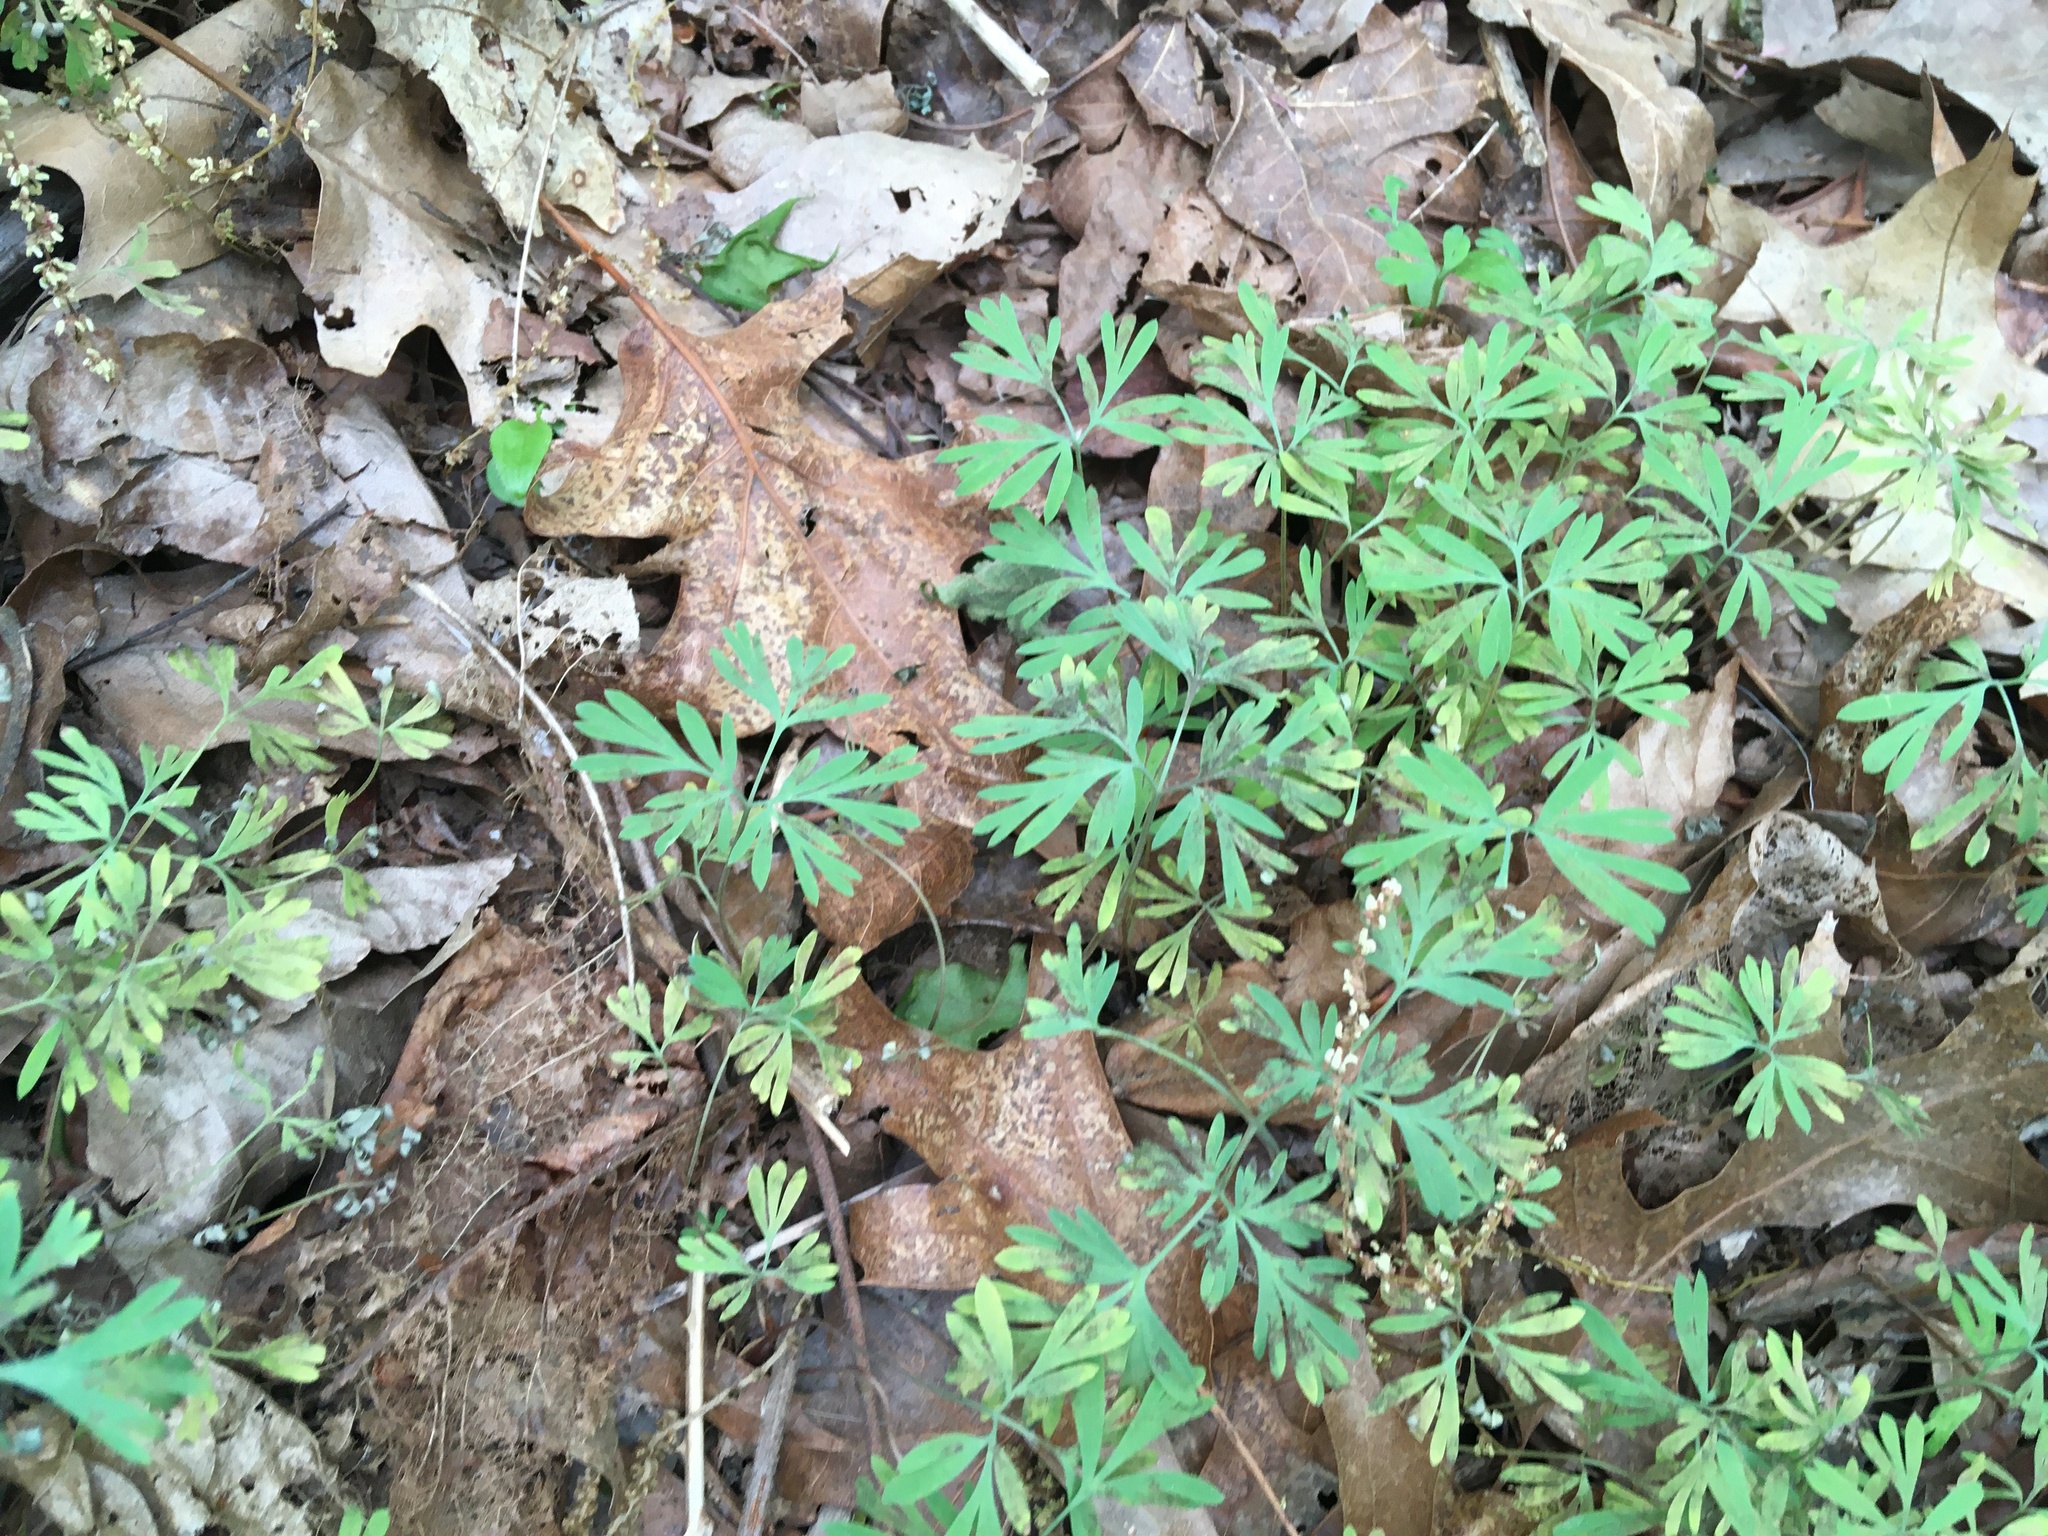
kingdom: Plantae
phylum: Tracheophyta
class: Magnoliopsida
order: Ranunculales
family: Papaveraceae
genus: Dicentra
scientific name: Dicentra cucullaria
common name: Dutchman's breeches
